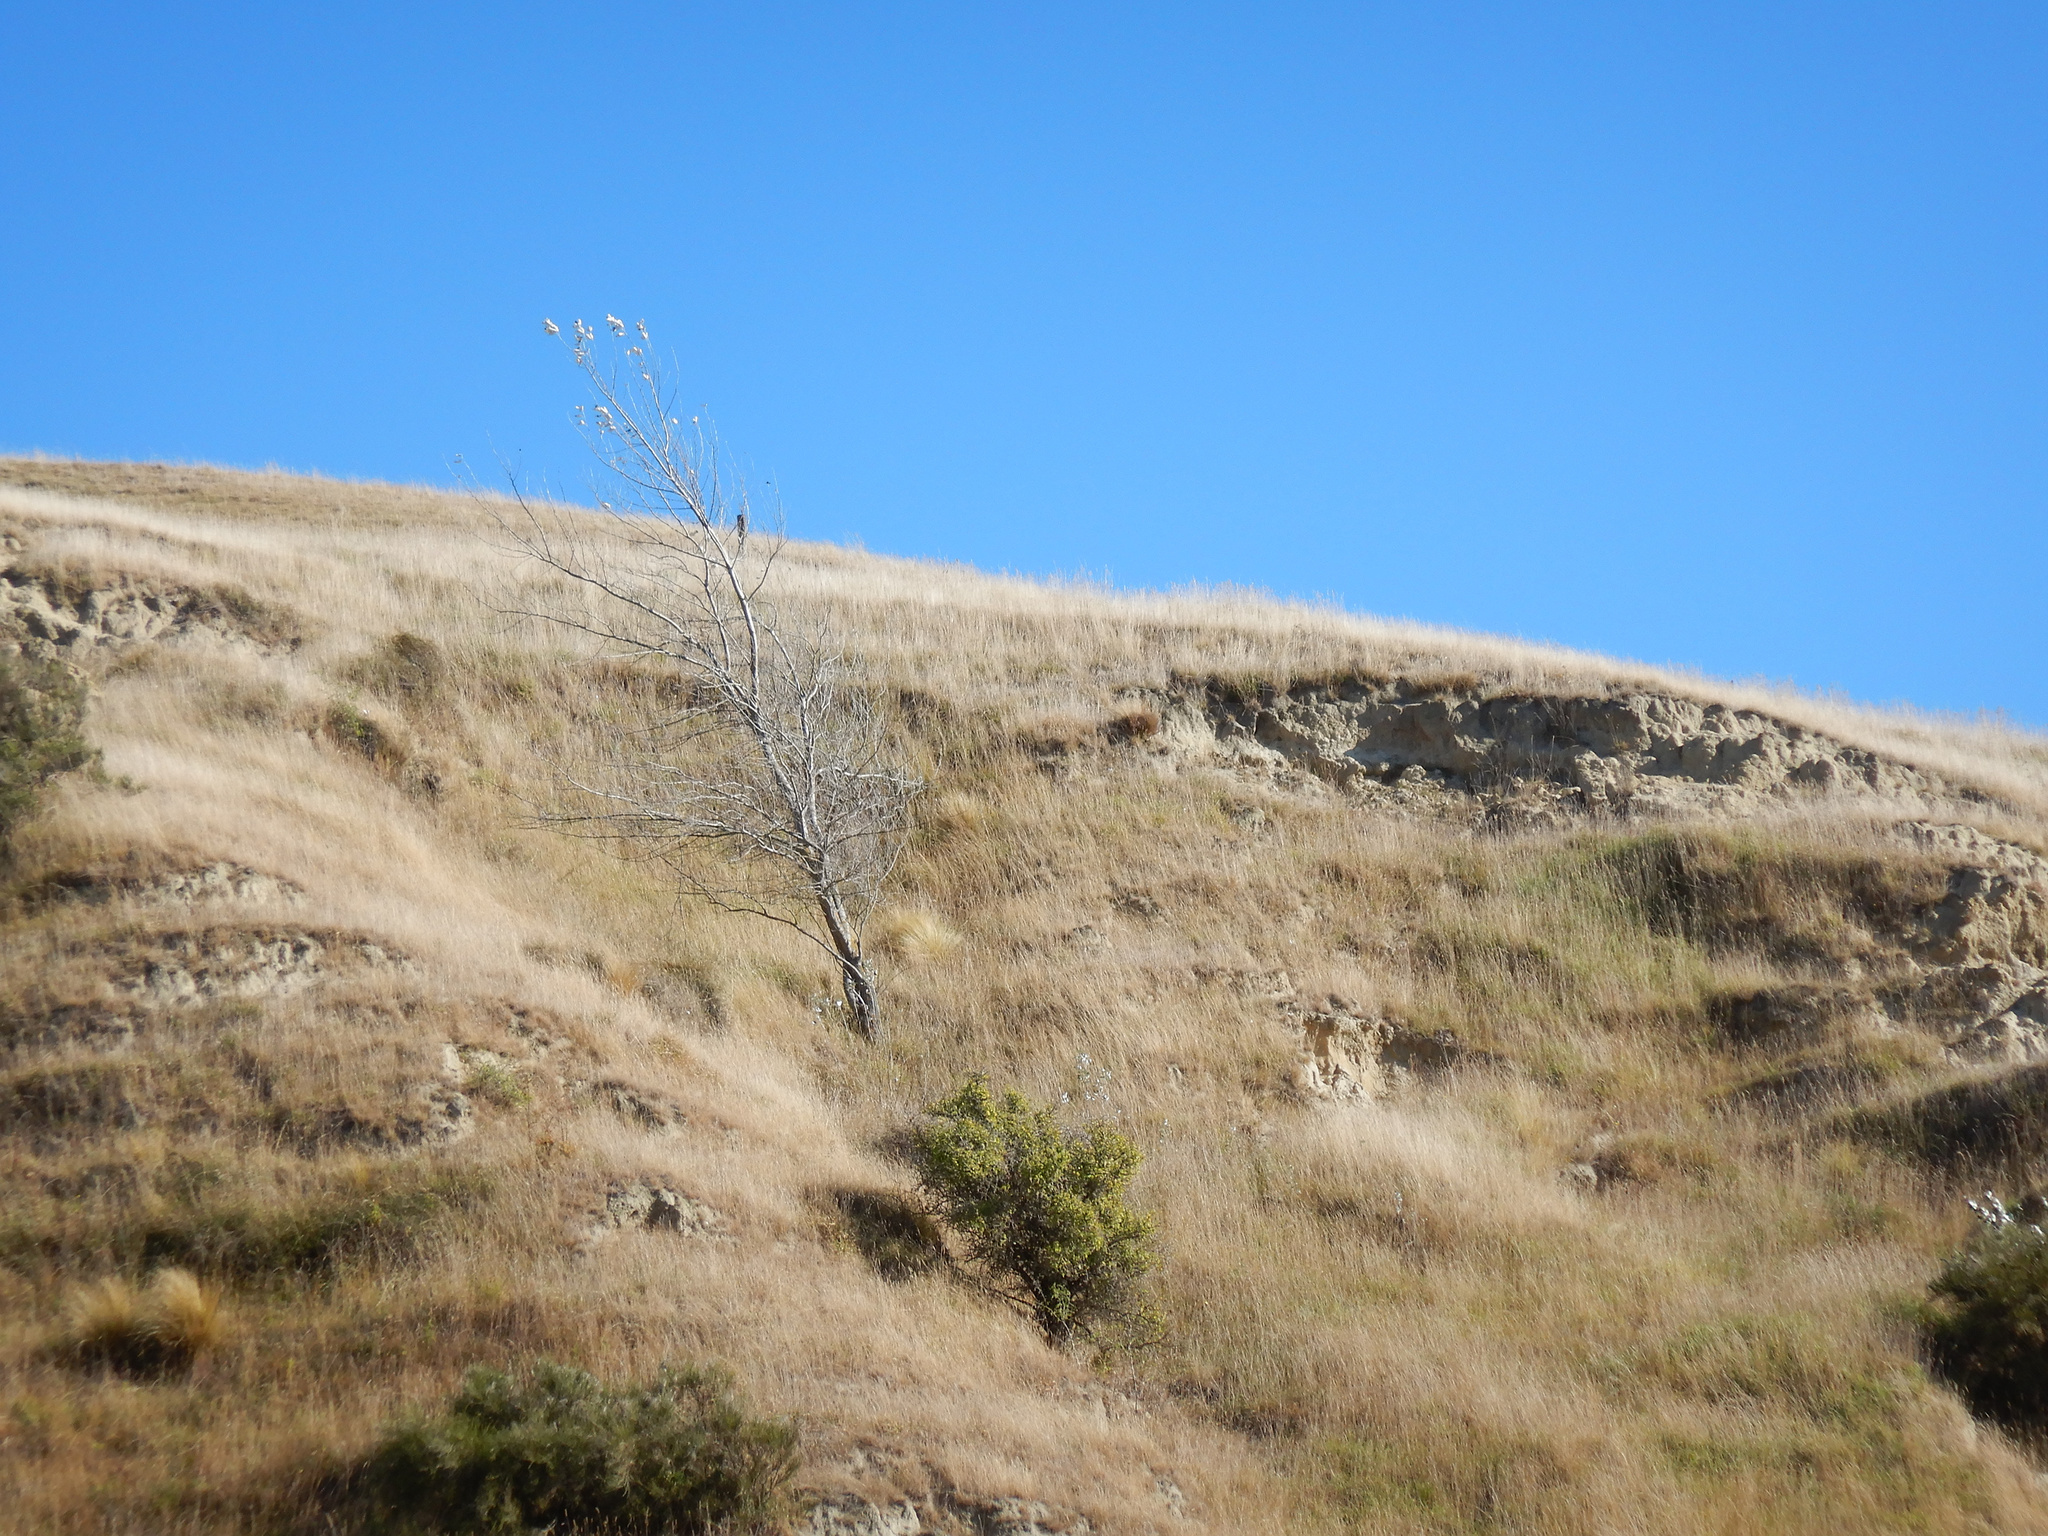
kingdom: Plantae
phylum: Tracheophyta
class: Magnoliopsida
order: Malpighiales
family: Salicaceae
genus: Populus
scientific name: Populus alba
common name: White poplar
